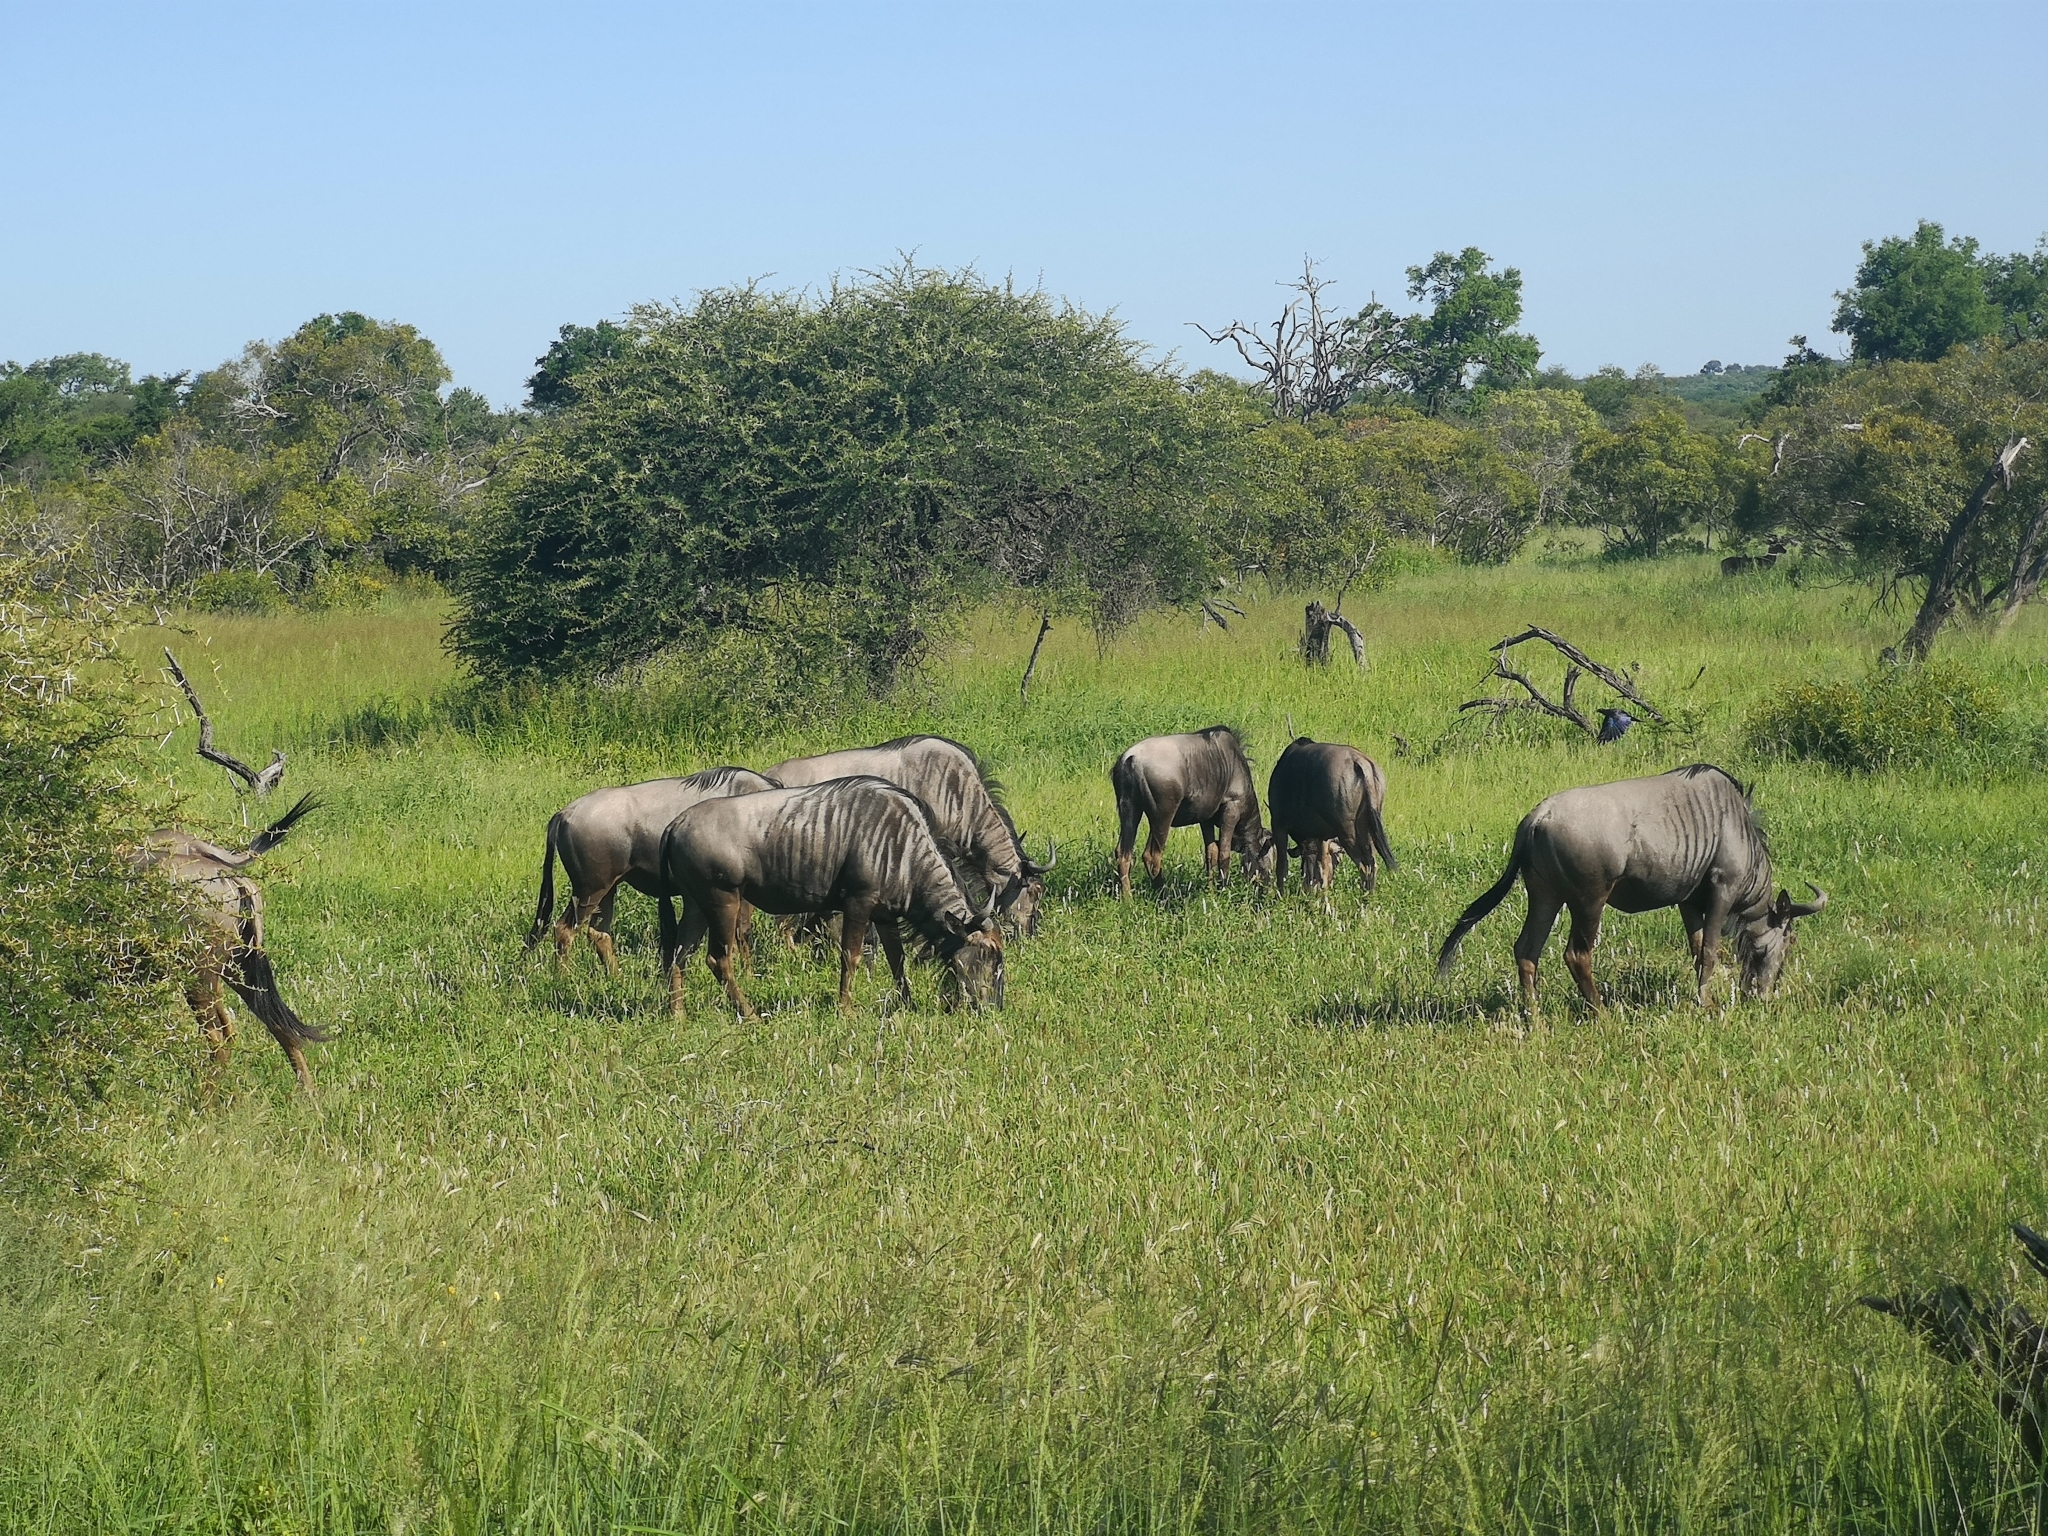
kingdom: Animalia
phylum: Chordata
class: Mammalia
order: Artiodactyla
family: Bovidae
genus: Connochaetes
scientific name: Connochaetes taurinus
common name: Blue wildebeest
